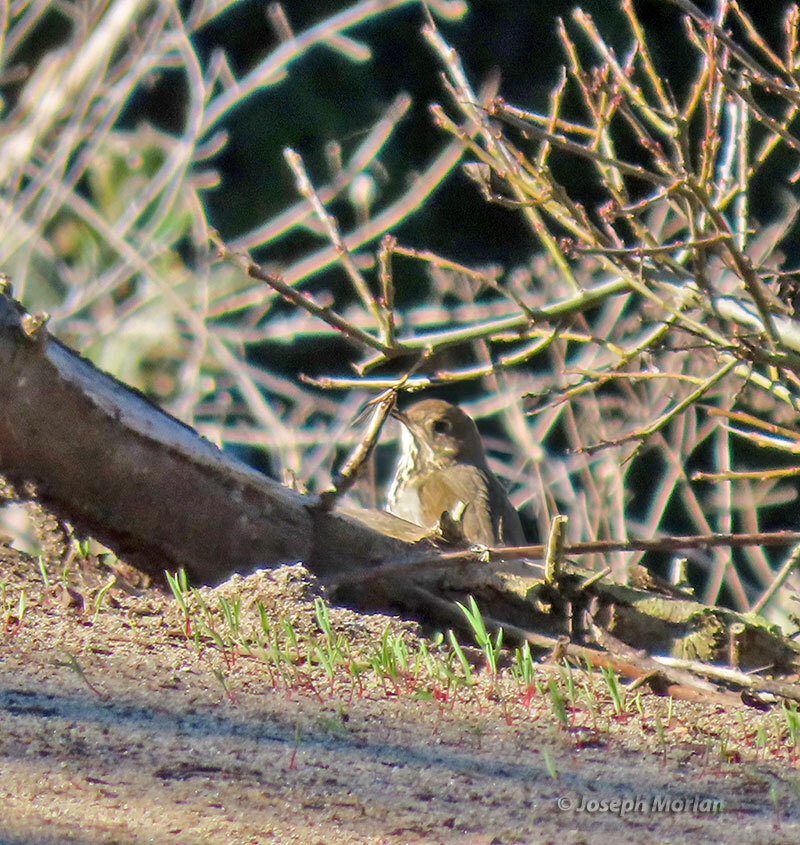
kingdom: Animalia
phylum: Chordata
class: Aves
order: Passeriformes
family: Turdidae
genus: Catharus
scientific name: Catharus guttatus
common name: Hermit thrush
